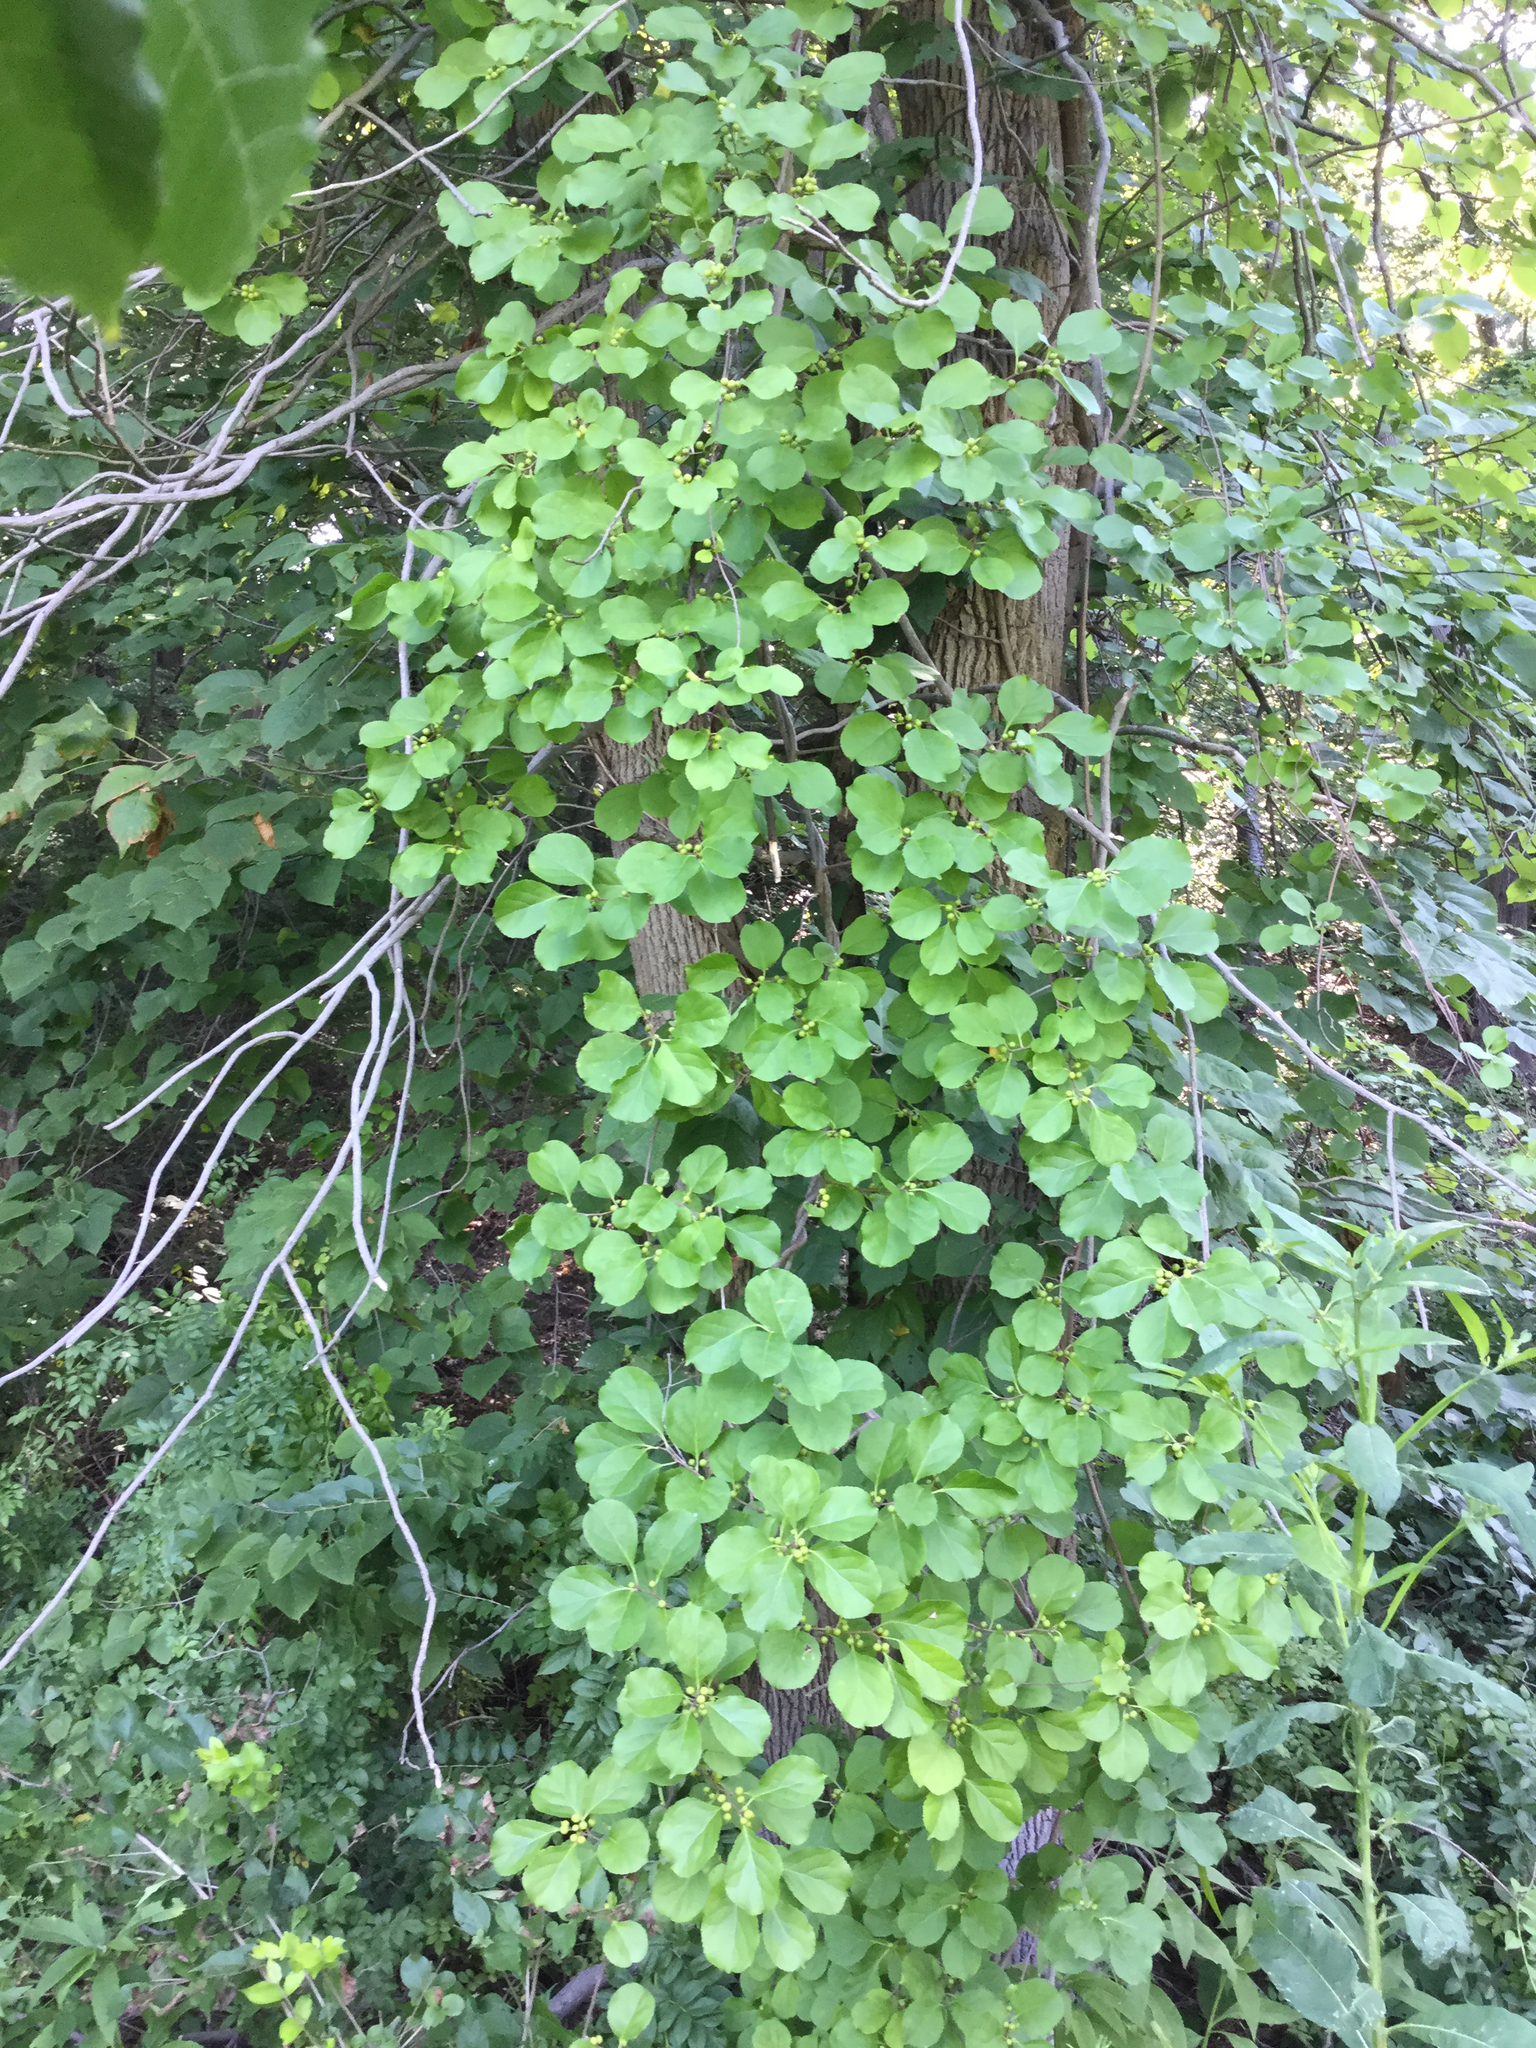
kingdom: Plantae
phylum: Tracheophyta
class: Magnoliopsida
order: Celastrales
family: Celastraceae
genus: Celastrus
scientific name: Celastrus orbiculatus
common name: Oriental bittersweet
